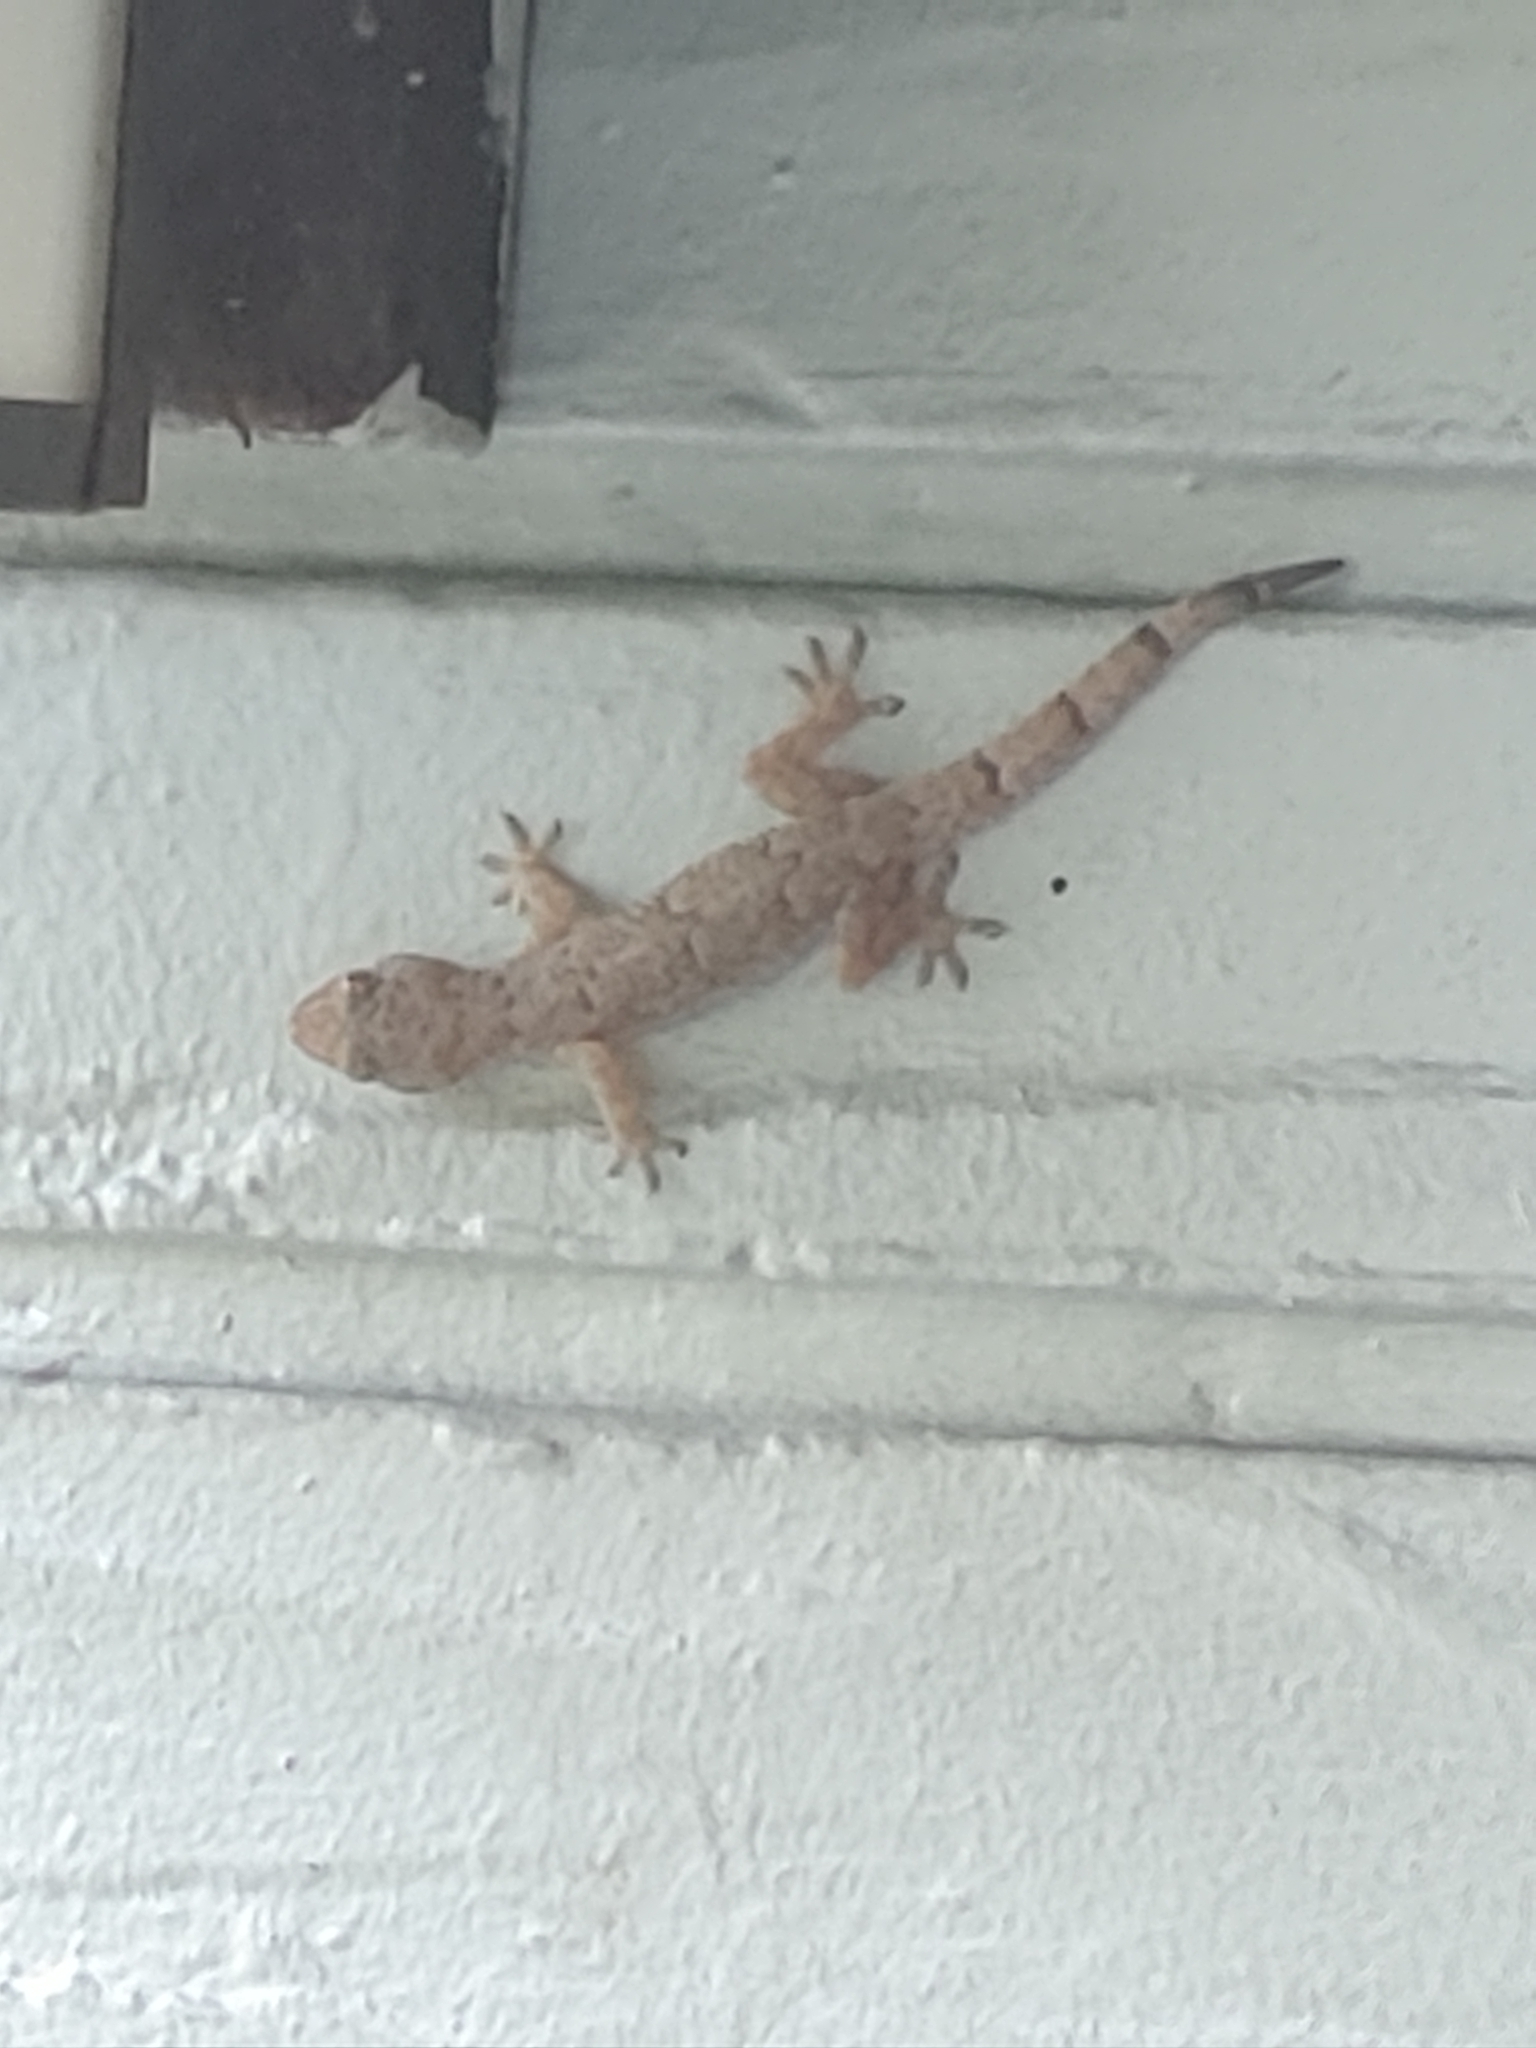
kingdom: Animalia
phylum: Chordata
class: Squamata
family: Gekkonidae
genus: Hemidactylus
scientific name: Hemidactylus mabouia
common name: House gecko
